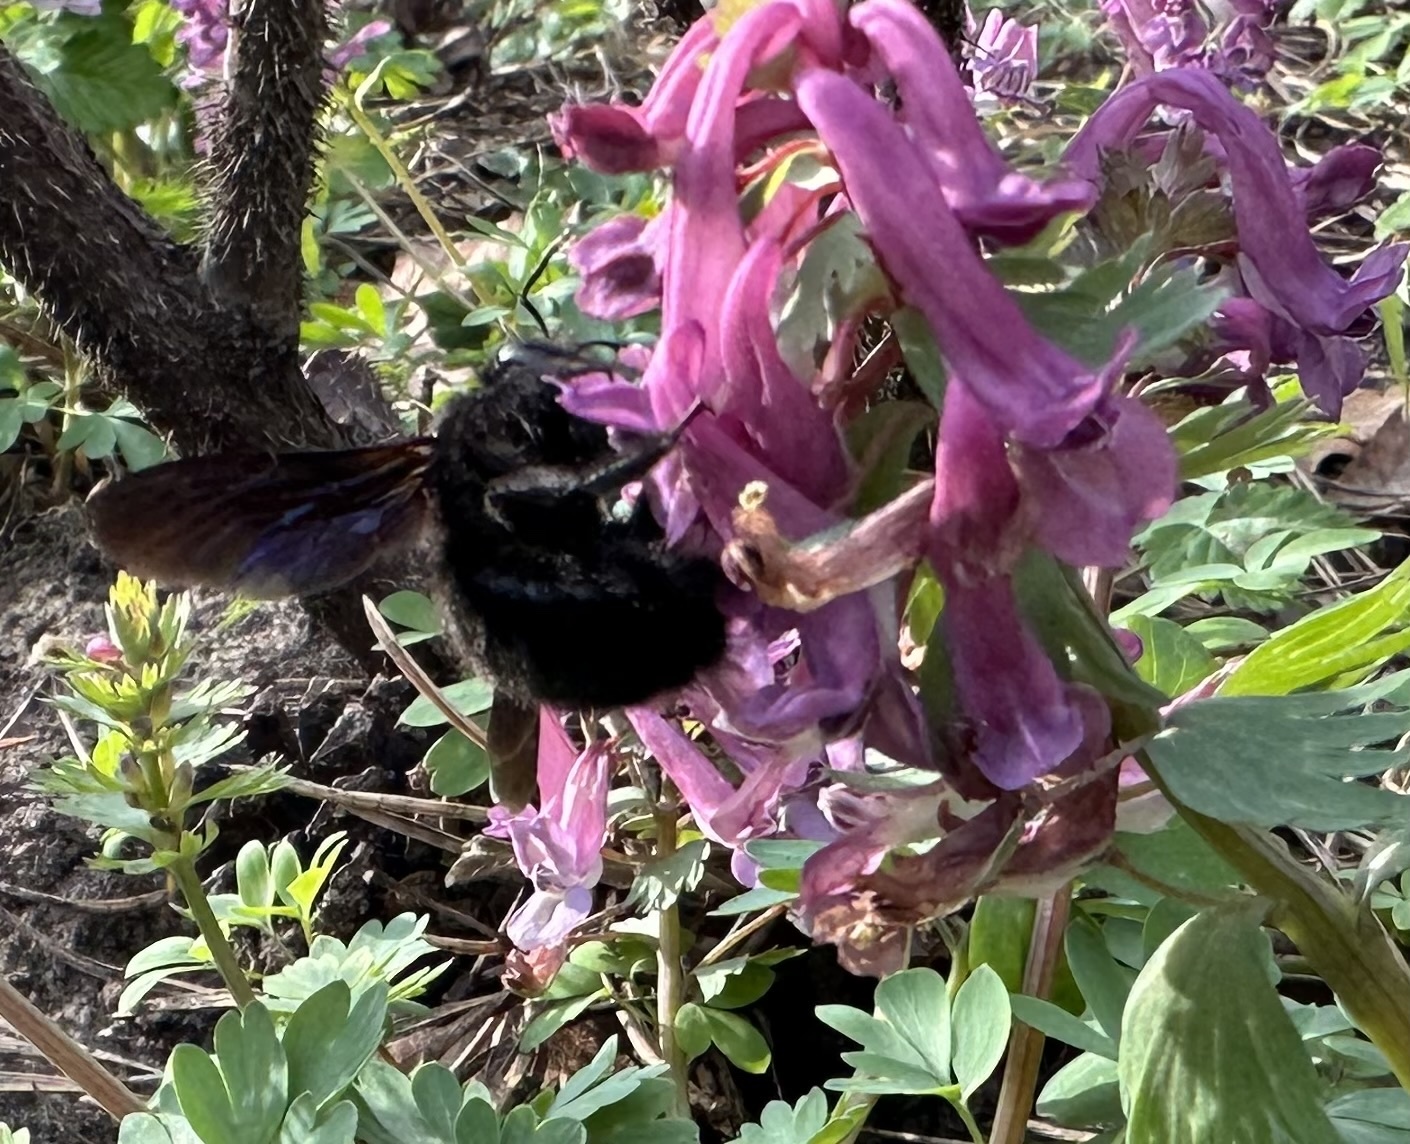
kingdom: Animalia
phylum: Arthropoda
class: Insecta
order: Hymenoptera
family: Apidae
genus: Xylocopa
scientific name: Xylocopa violacea
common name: Violet carpenter bee
